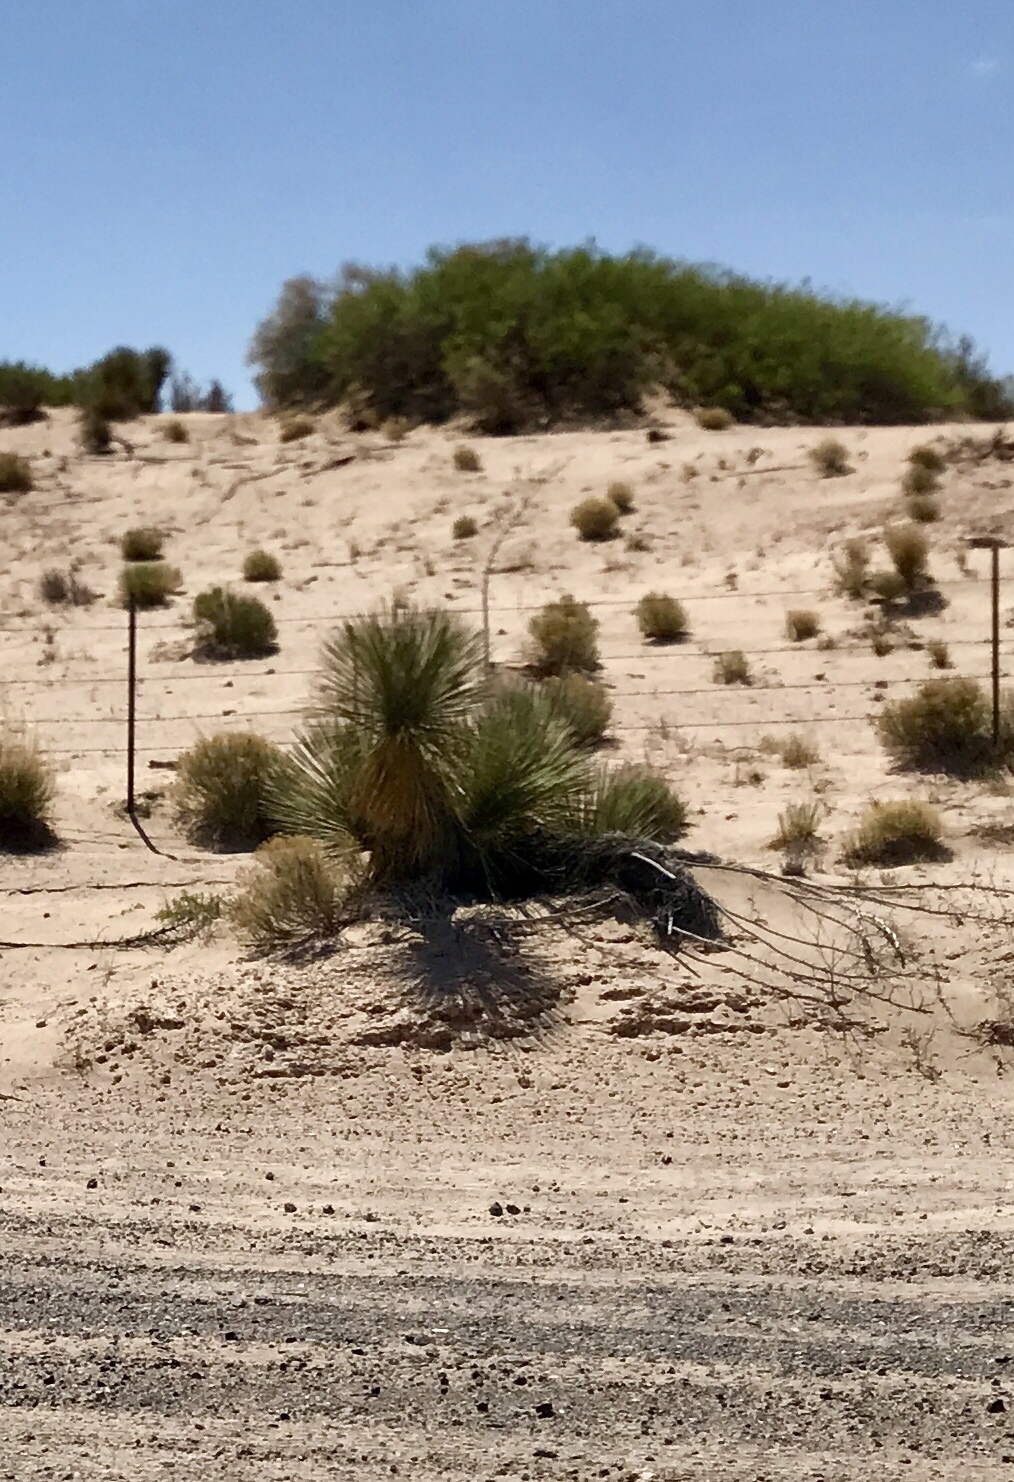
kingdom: Plantae
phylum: Tracheophyta
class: Liliopsida
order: Asparagales
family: Asparagaceae
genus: Yucca
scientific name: Yucca elata
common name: Palmella
